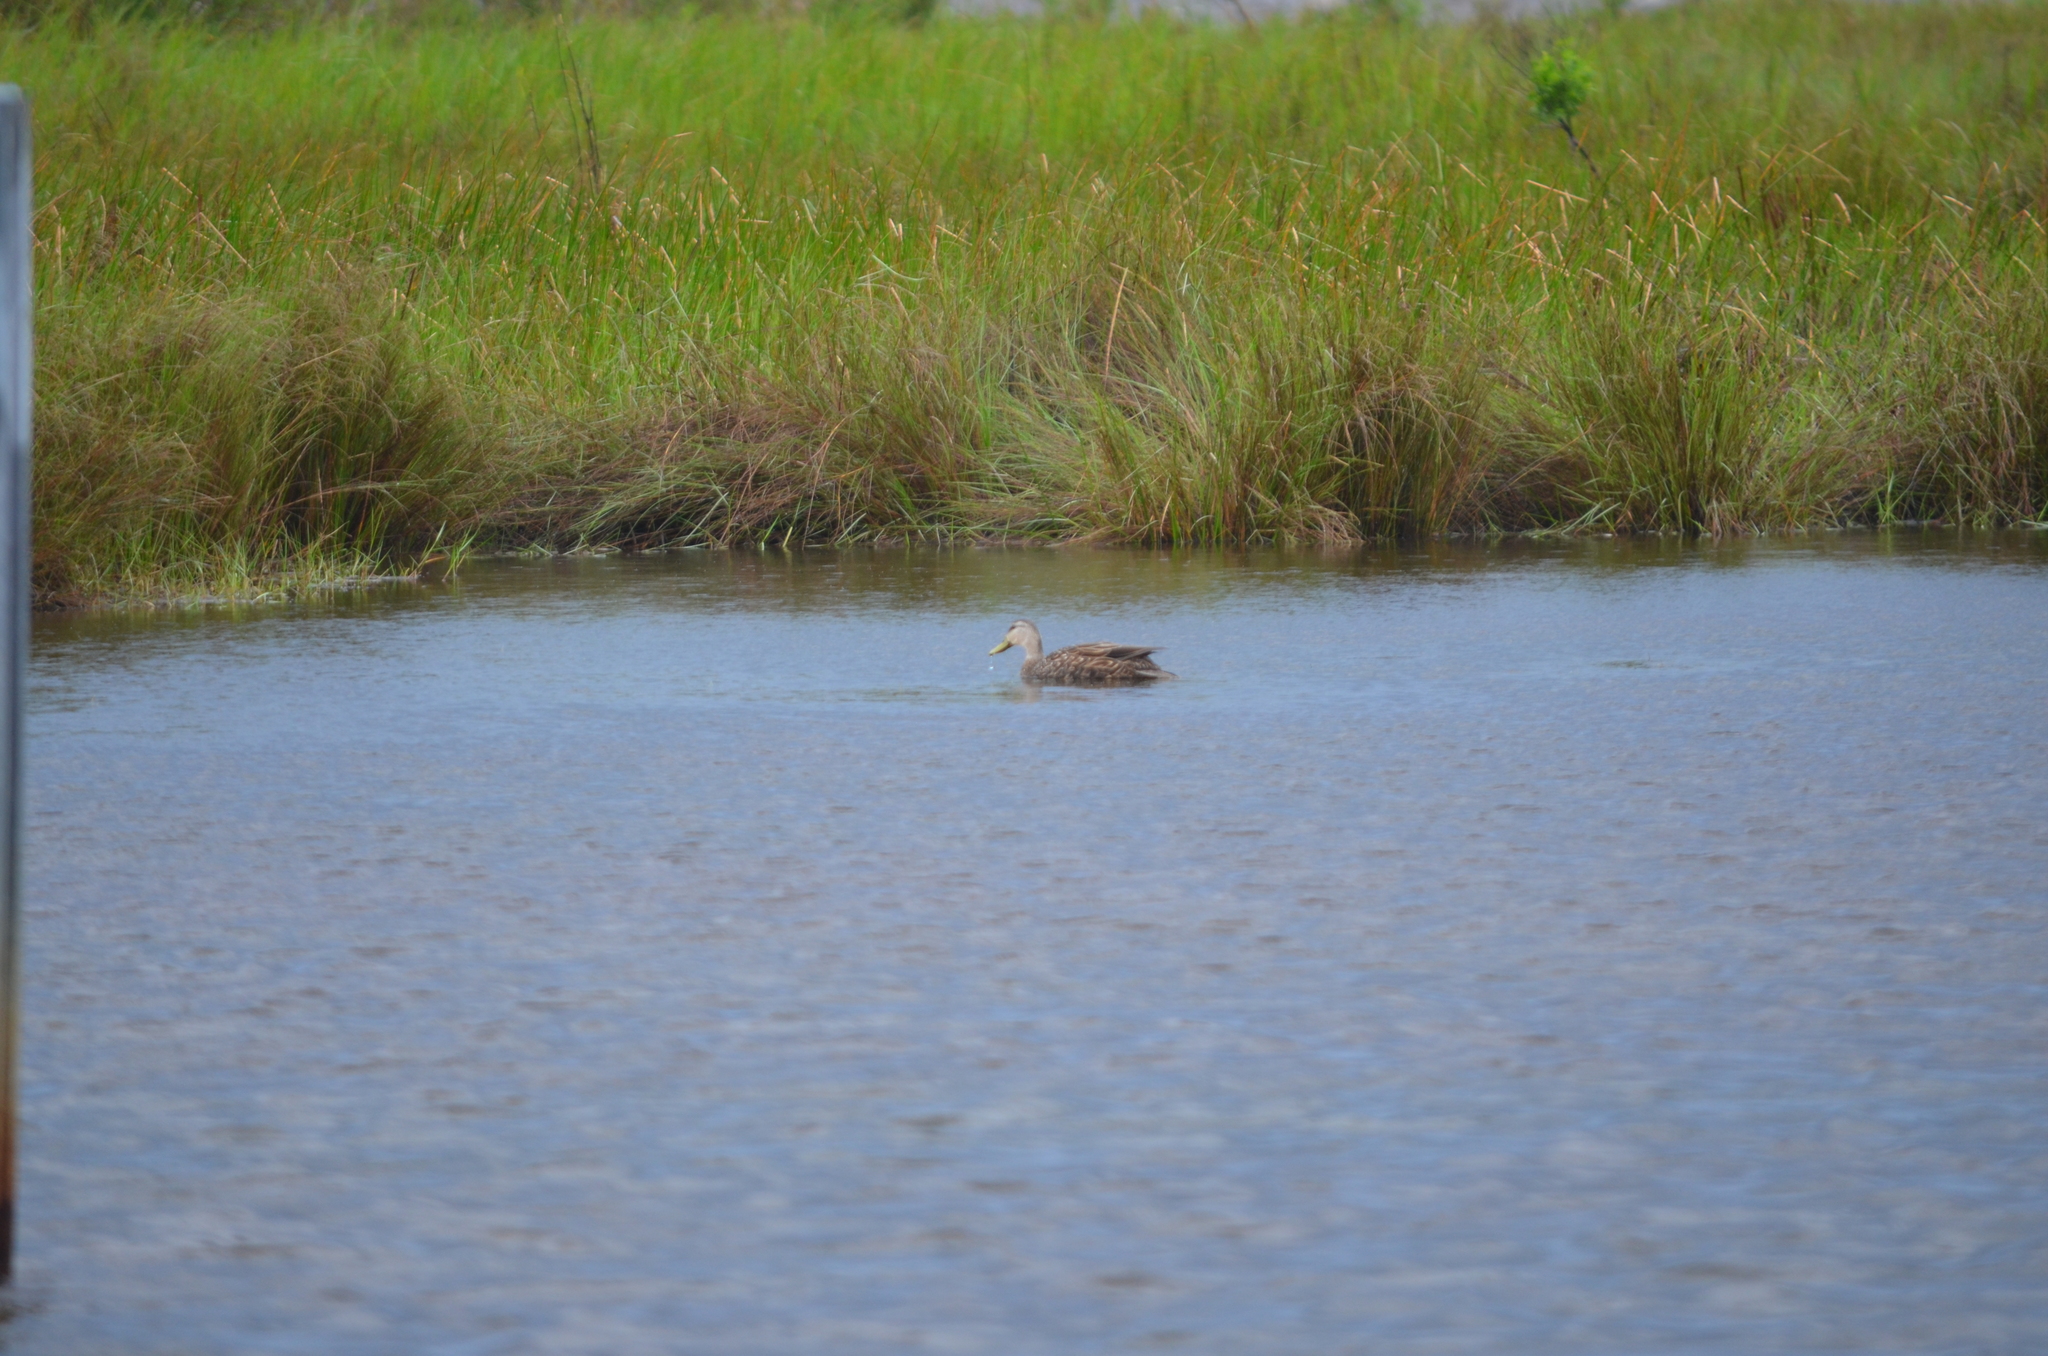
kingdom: Animalia
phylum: Chordata
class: Aves
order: Anseriformes
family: Anatidae
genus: Anas
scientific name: Anas fulvigula
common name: Mottled duck
